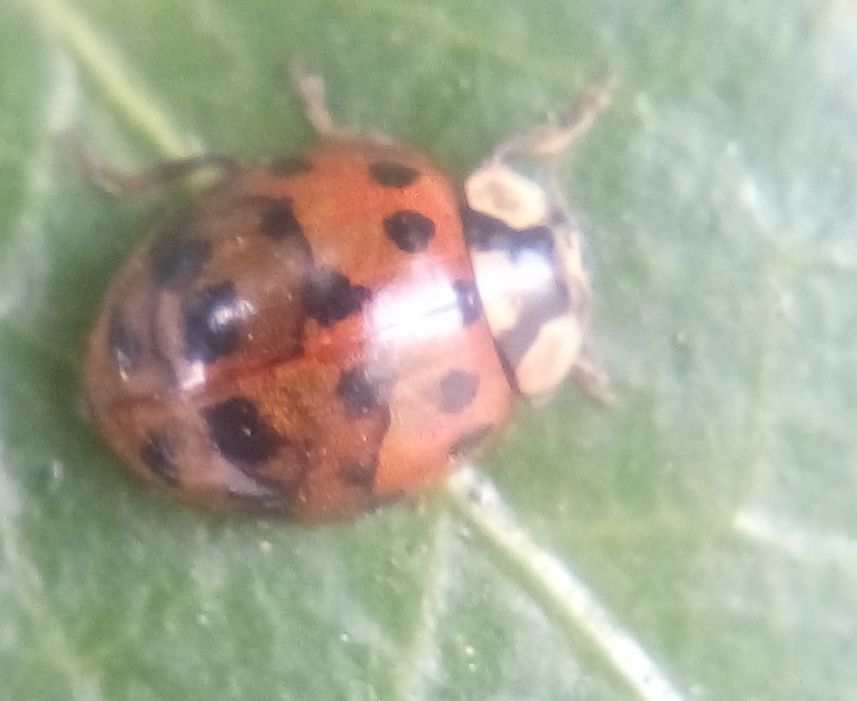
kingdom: Animalia
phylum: Arthropoda
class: Insecta
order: Coleoptera
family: Coccinellidae
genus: Harmonia
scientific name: Harmonia axyridis
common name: Harlequin ladybird
